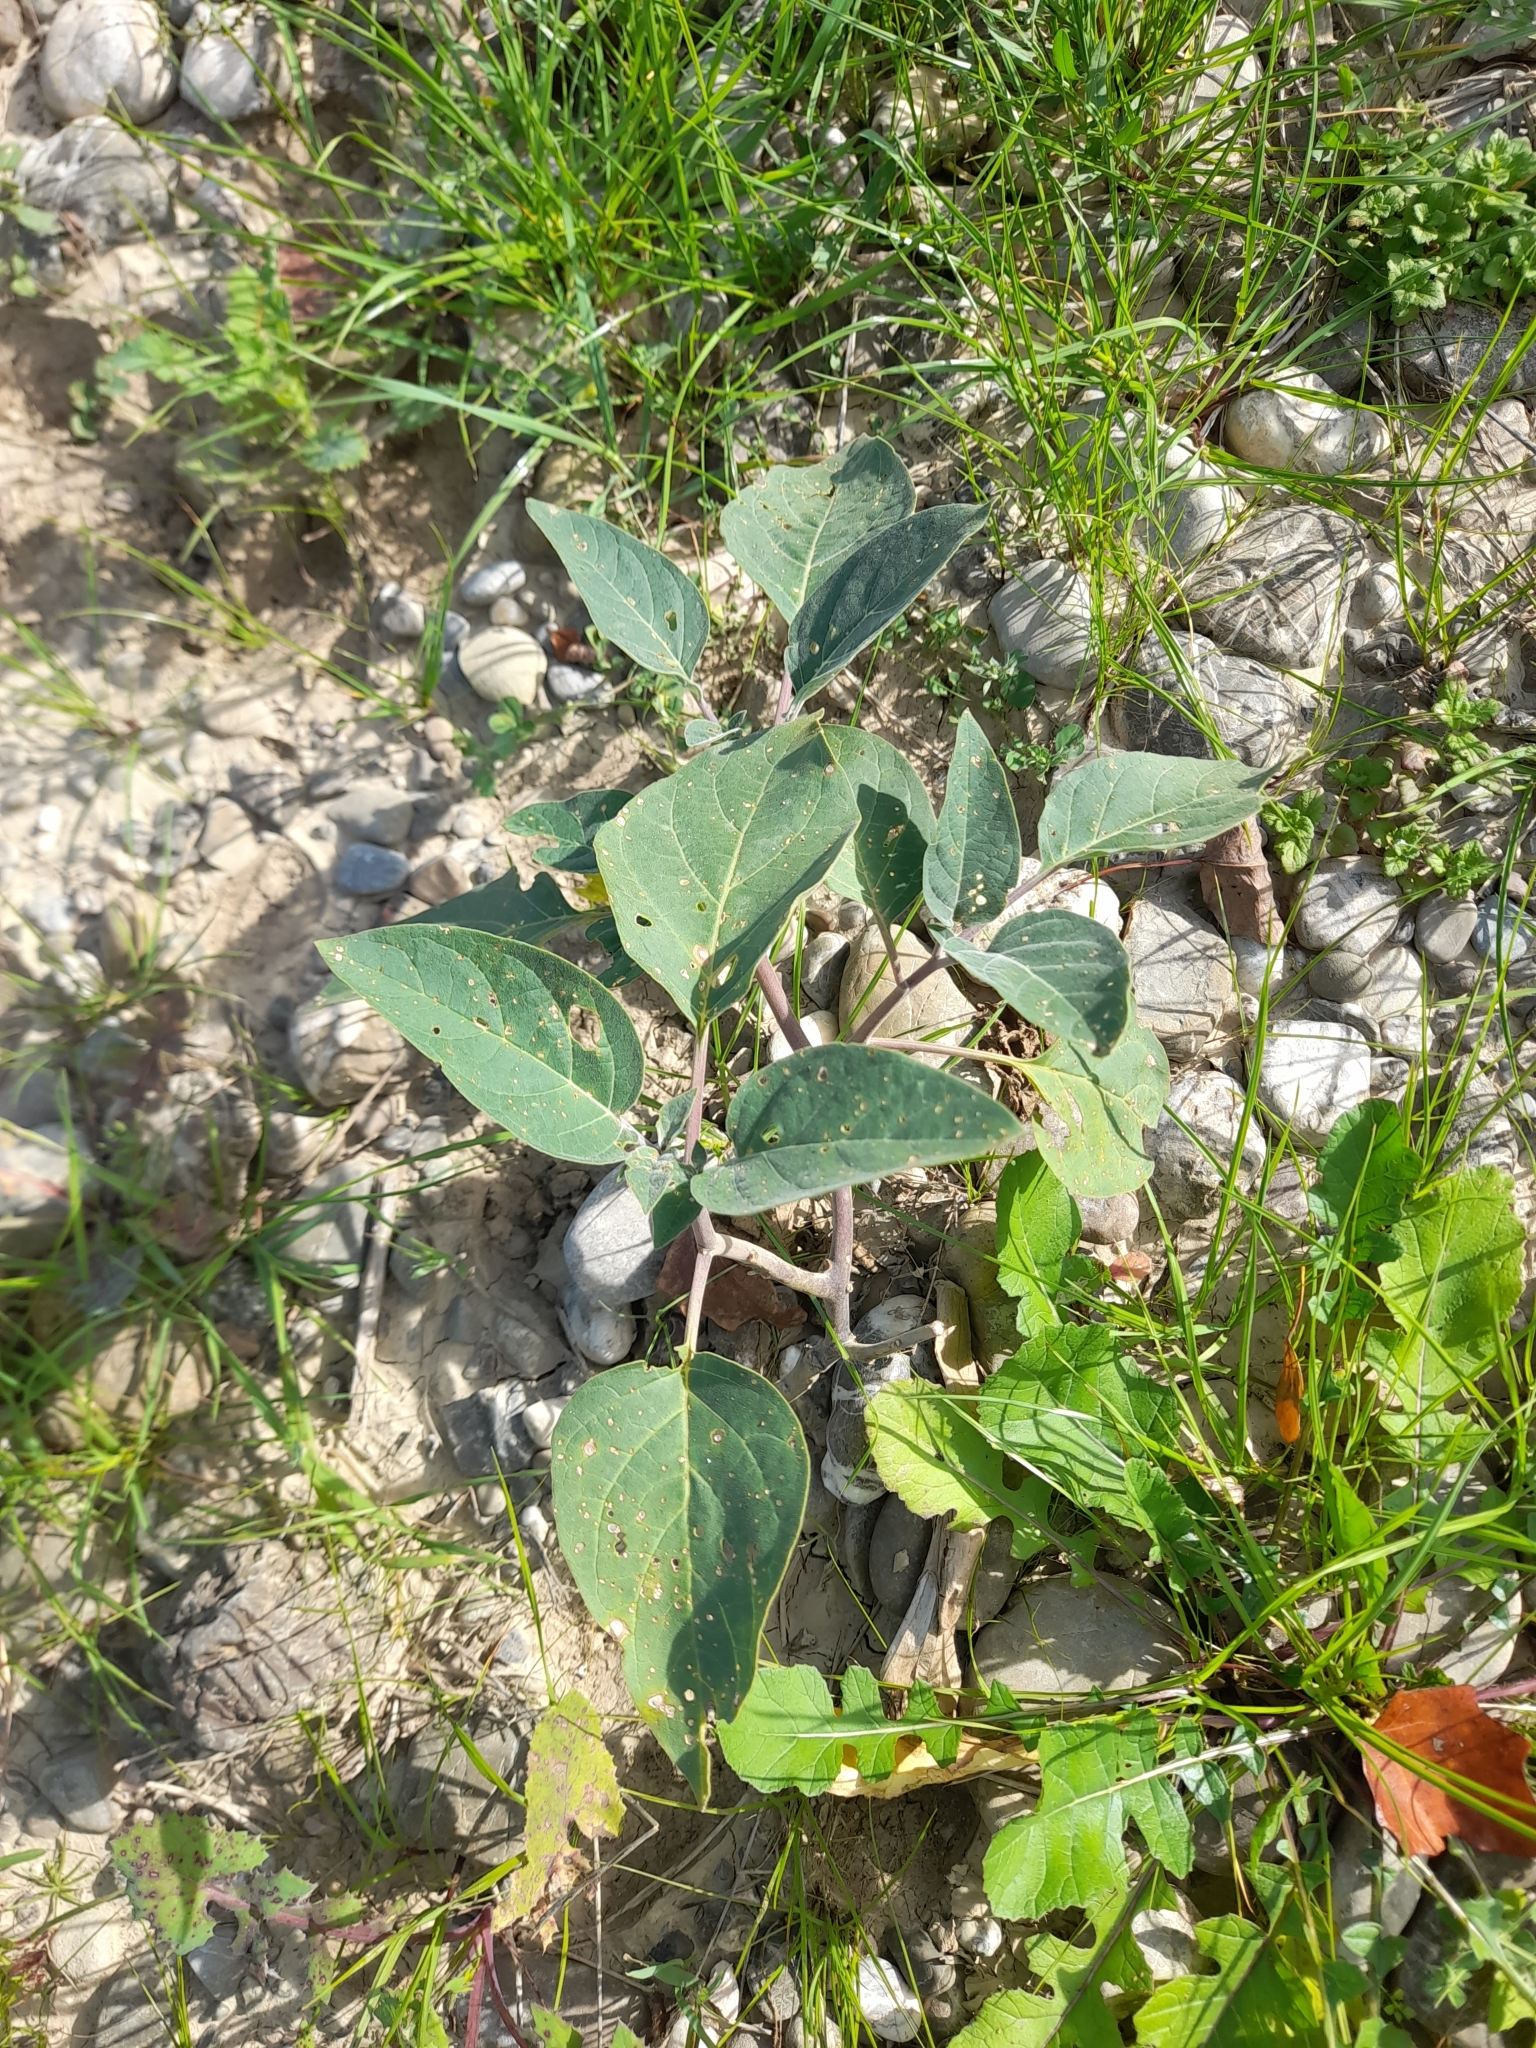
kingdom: Plantae
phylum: Tracheophyta
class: Magnoliopsida
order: Solanales
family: Solanaceae
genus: Datura
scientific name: Datura wrightii
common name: Sacred thorn-apple
